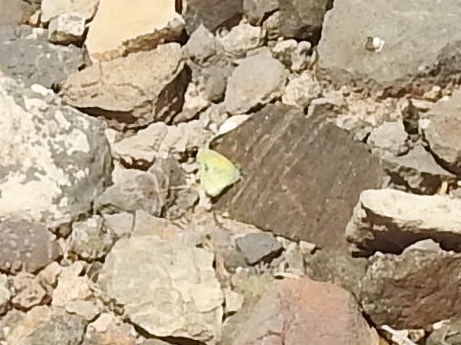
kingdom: Animalia
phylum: Arthropoda
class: Insecta
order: Lepidoptera
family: Pieridae
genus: Nathalis
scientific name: Nathalis iole
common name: Dainty sulphur
